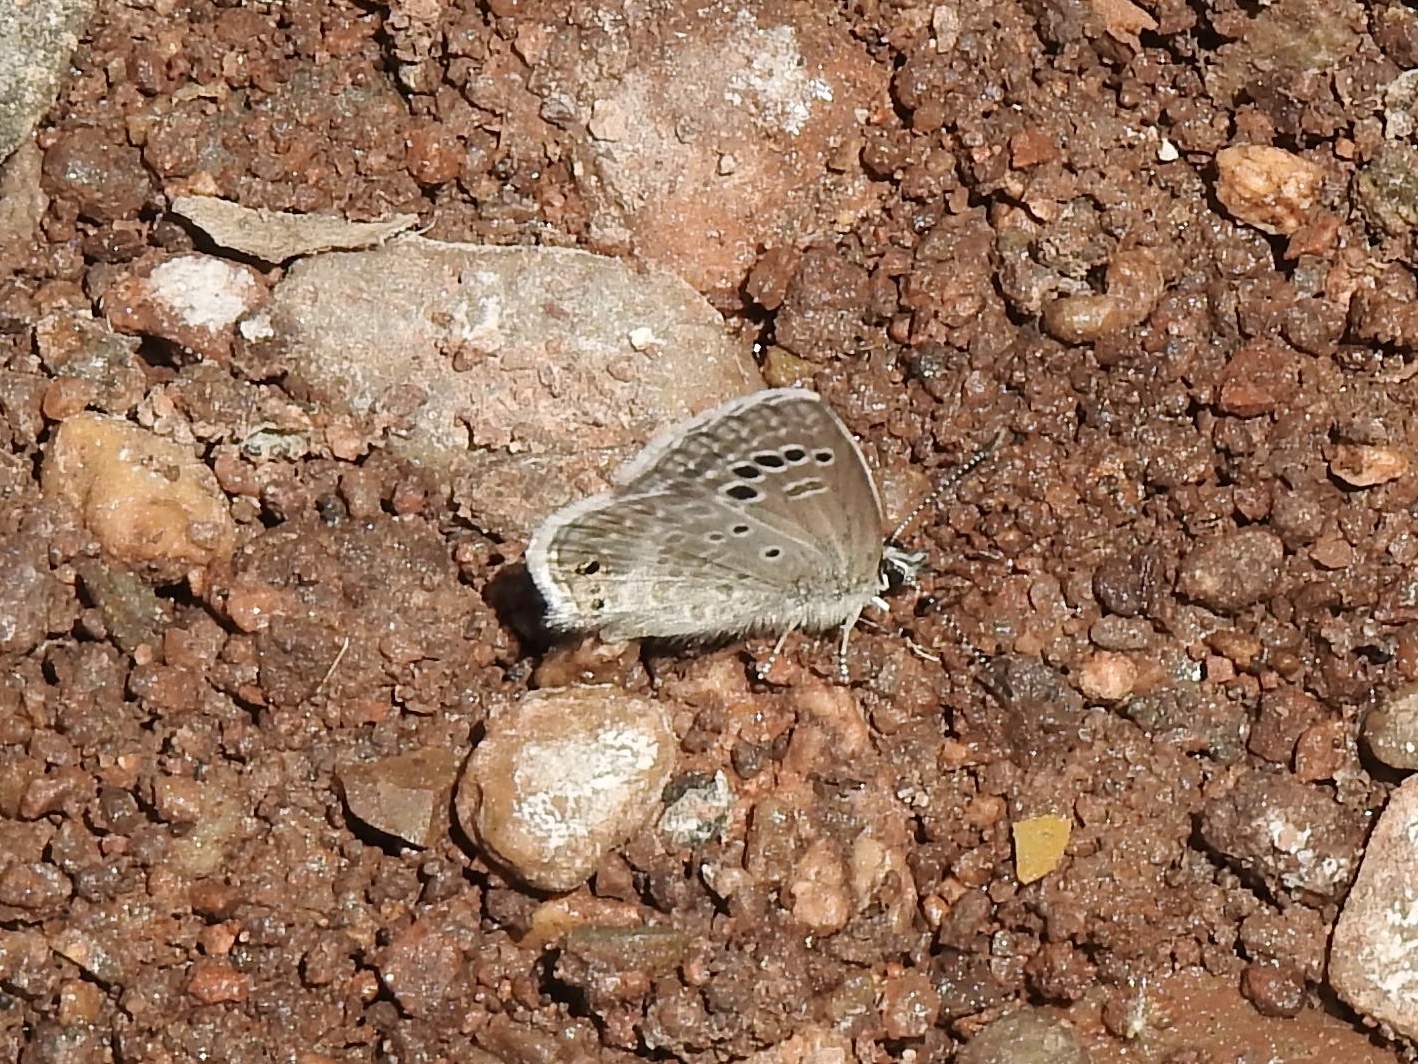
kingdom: Animalia
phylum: Arthropoda
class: Insecta
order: Lepidoptera
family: Lycaenidae
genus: Echinargus
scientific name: Echinargus isola
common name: Reakirt's blue
